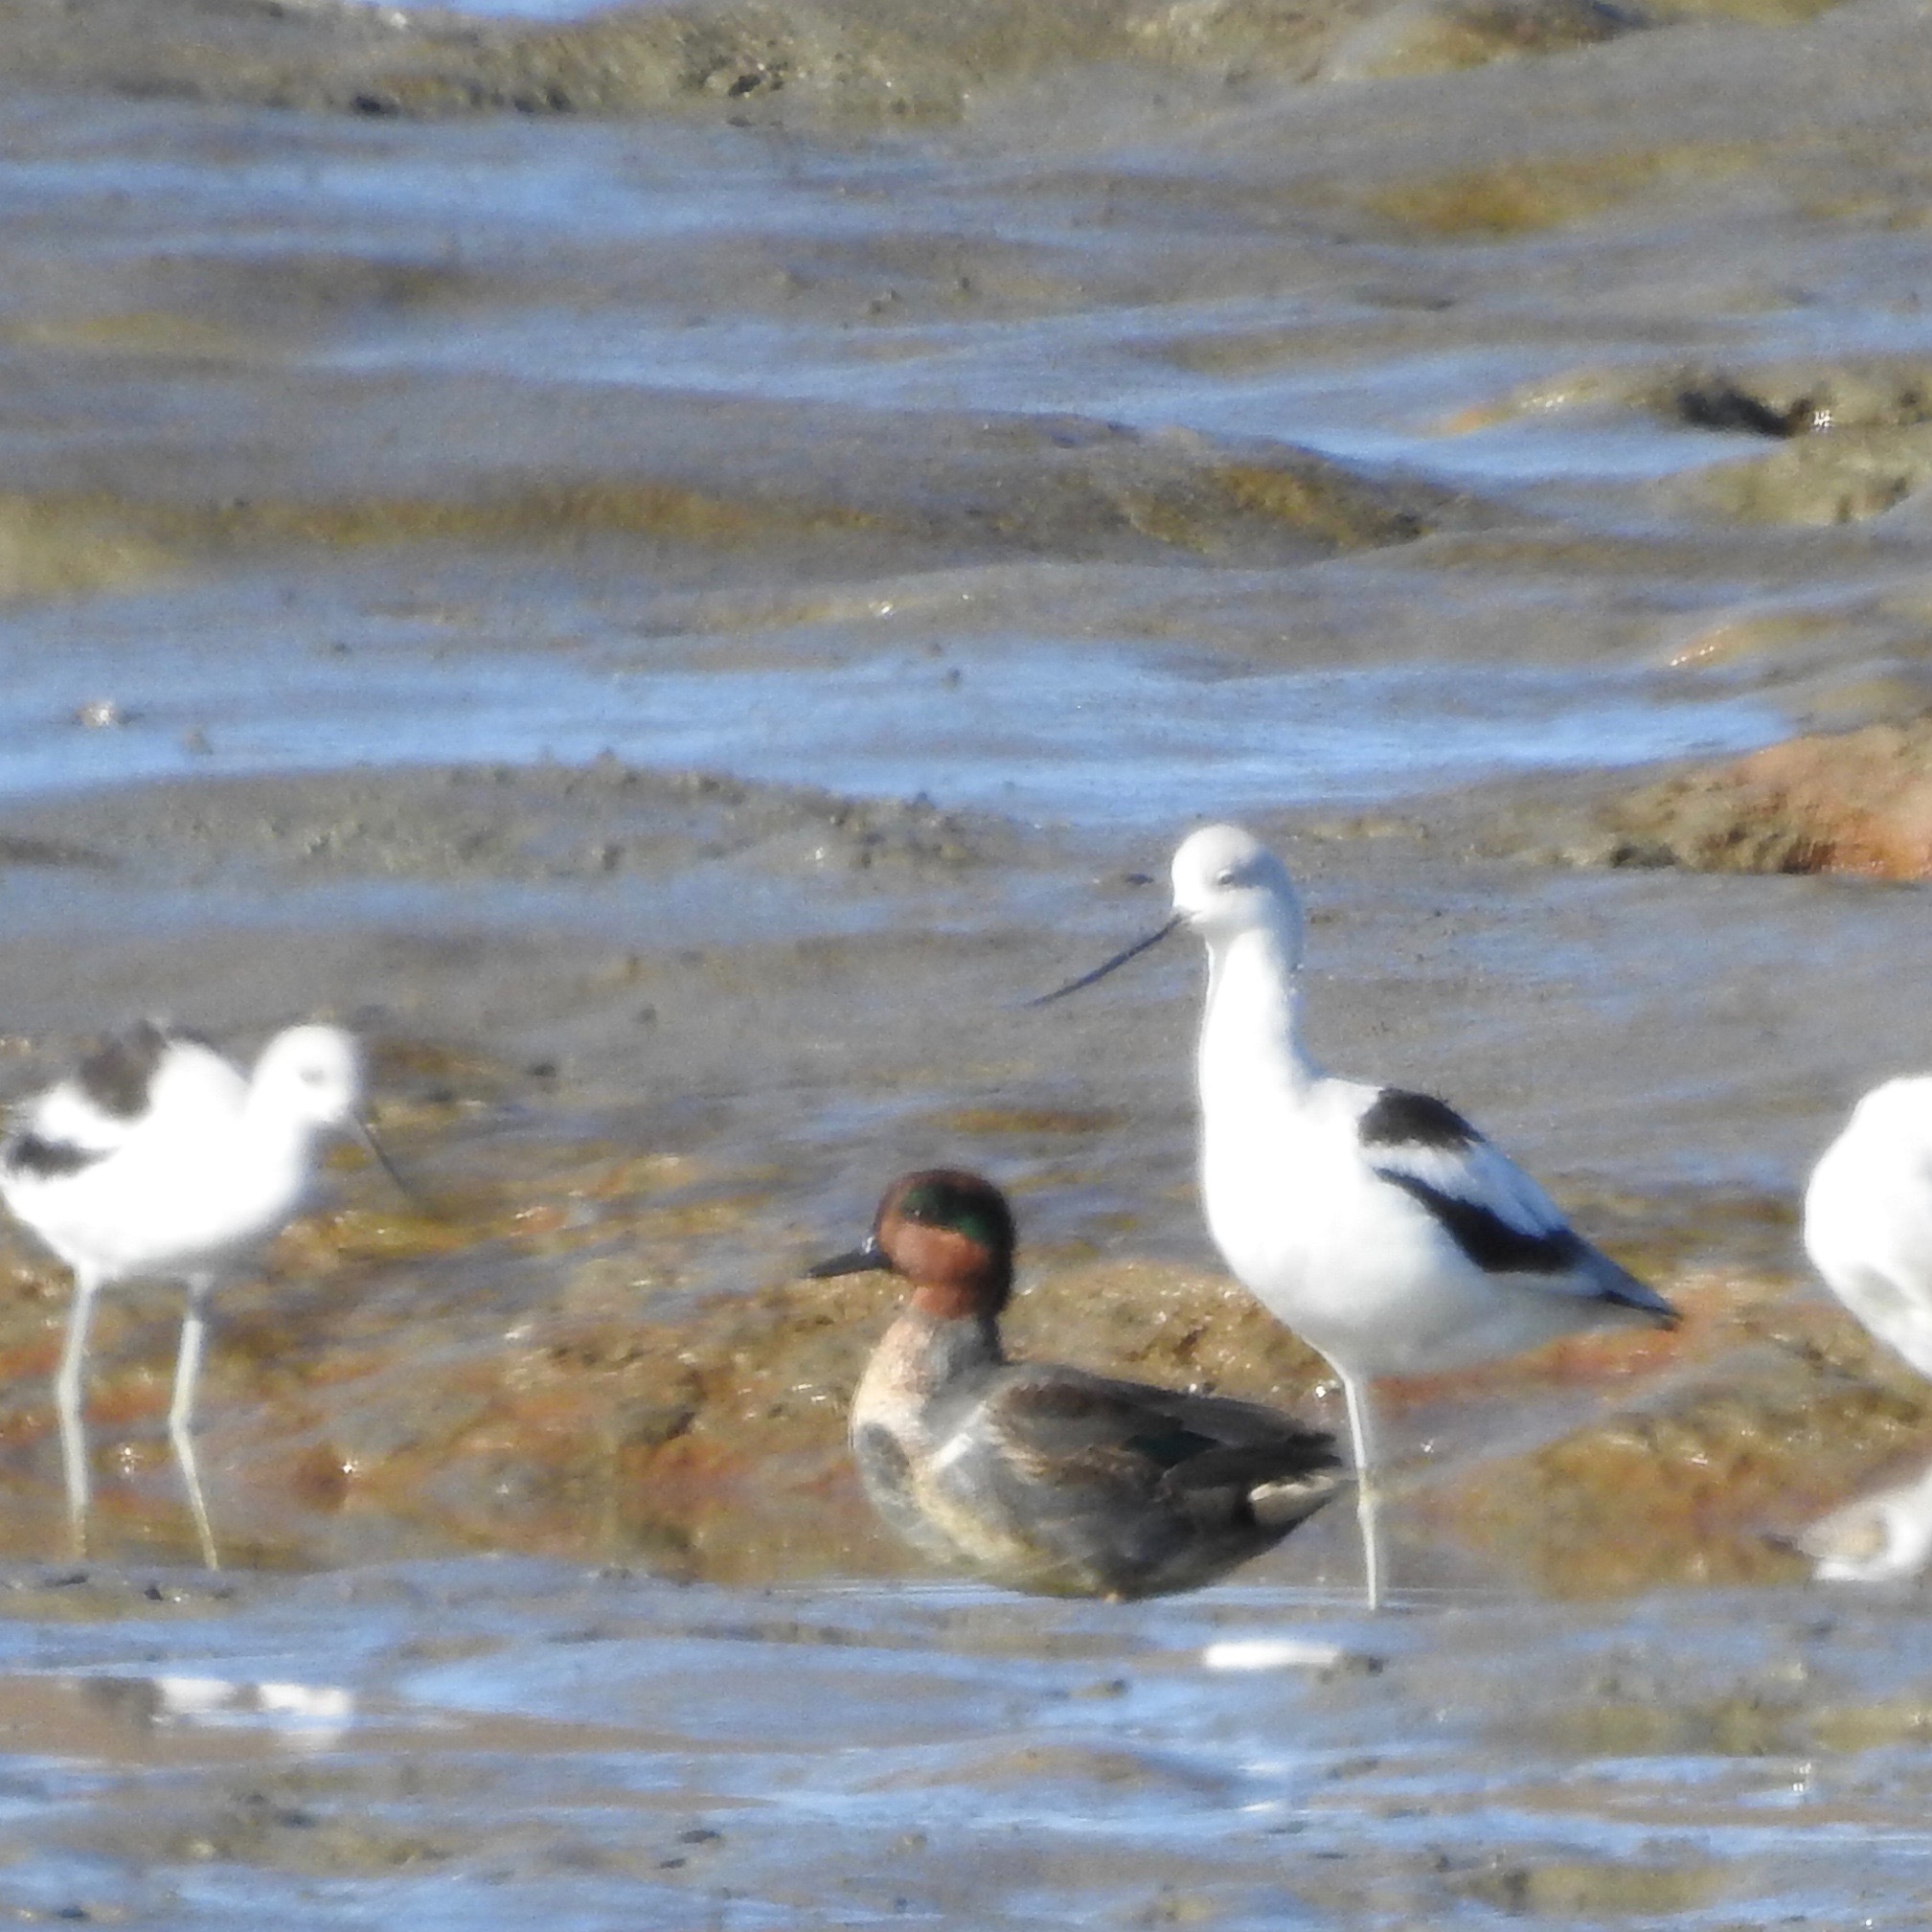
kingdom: Animalia
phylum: Chordata
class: Aves
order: Anseriformes
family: Anatidae
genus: Anas
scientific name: Anas crecca
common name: Eurasian teal
